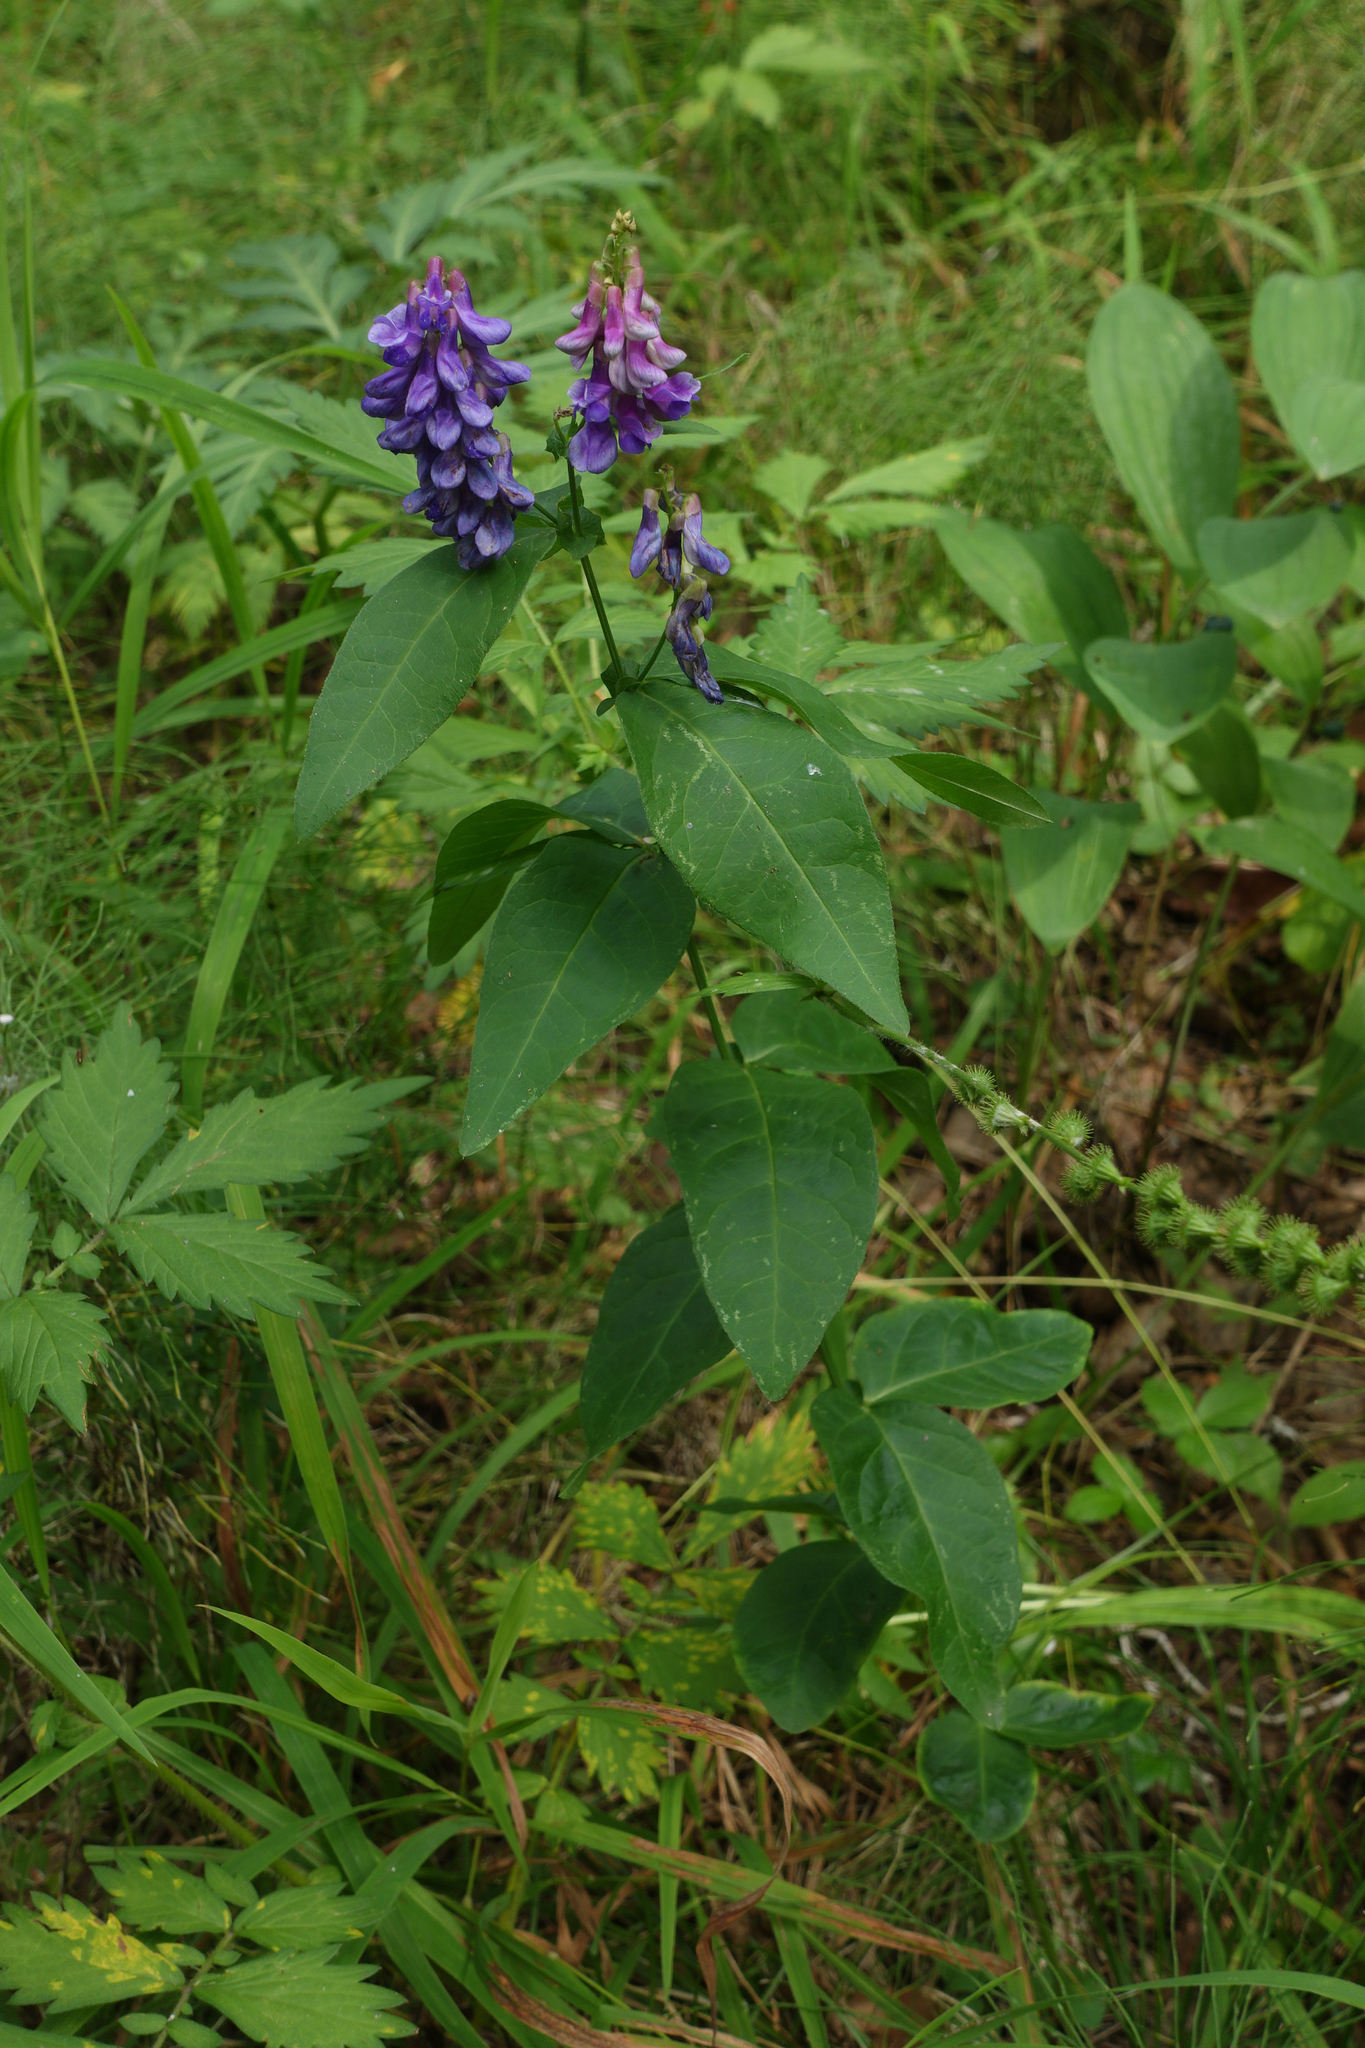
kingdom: Plantae
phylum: Tracheophyta
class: Magnoliopsida
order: Fabales
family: Fabaceae
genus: Vicia
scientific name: Vicia unijuga
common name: Two-leaf vetch
